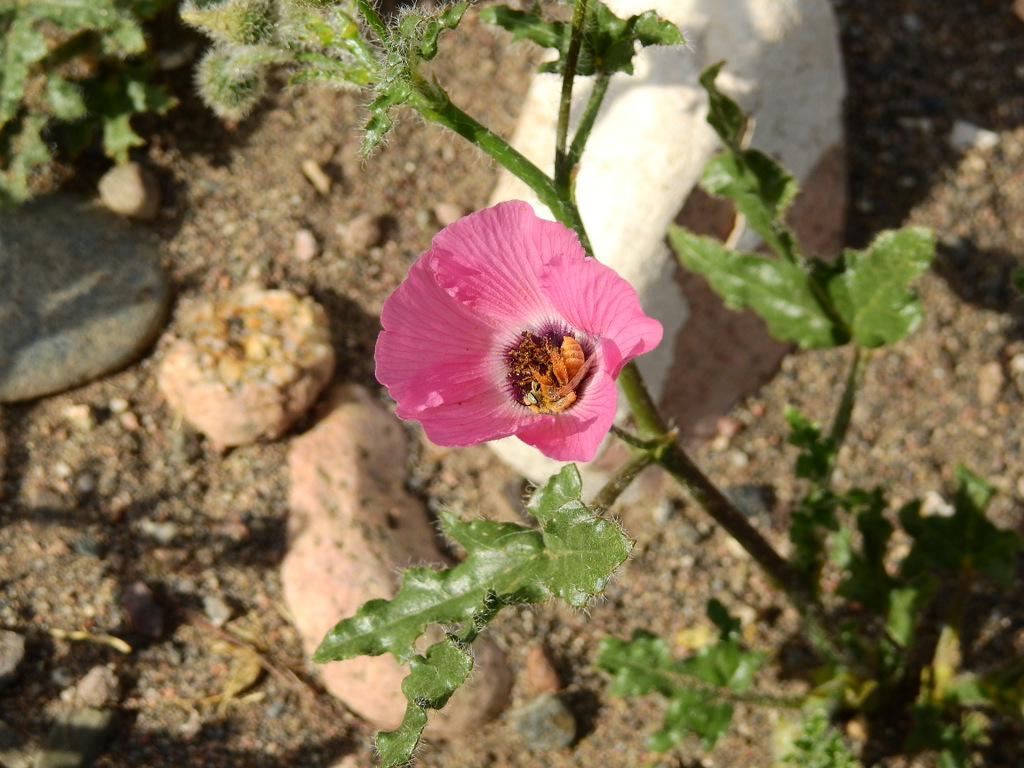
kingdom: Plantae
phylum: Tracheophyta
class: Magnoliopsida
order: Malvales
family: Malvaceae
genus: Lecanophora
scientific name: Lecanophora heterophylla
